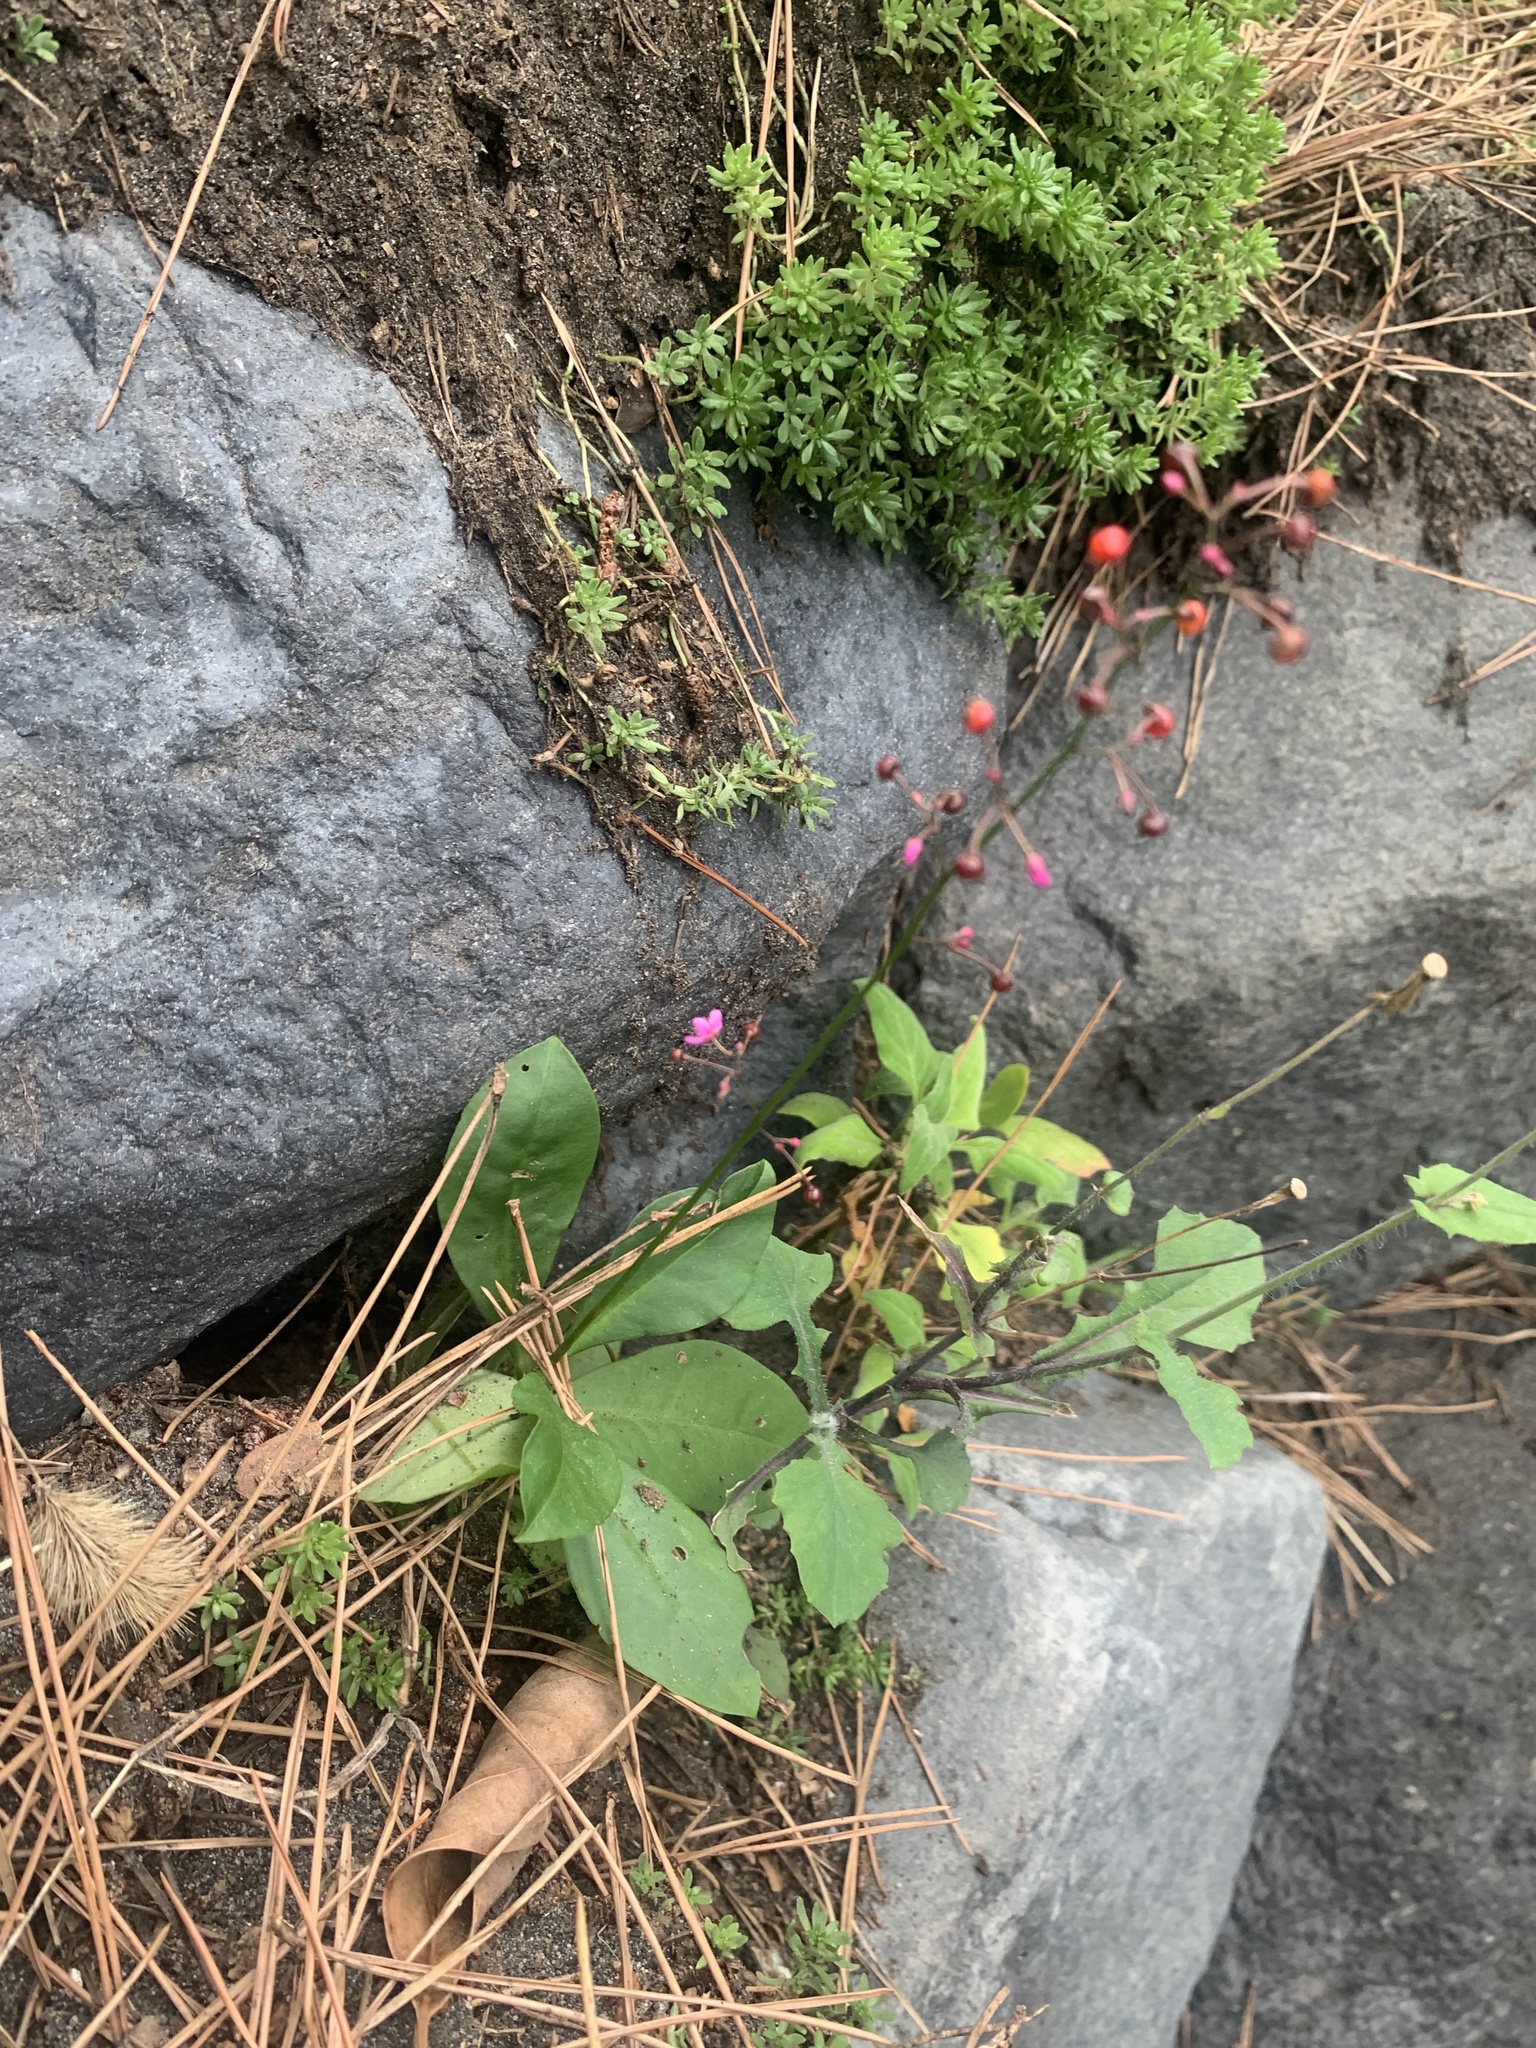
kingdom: Plantae
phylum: Tracheophyta
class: Magnoliopsida
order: Caryophyllales
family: Talinaceae
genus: Talinum
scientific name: Talinum paniculatum
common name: Jewels of opar
